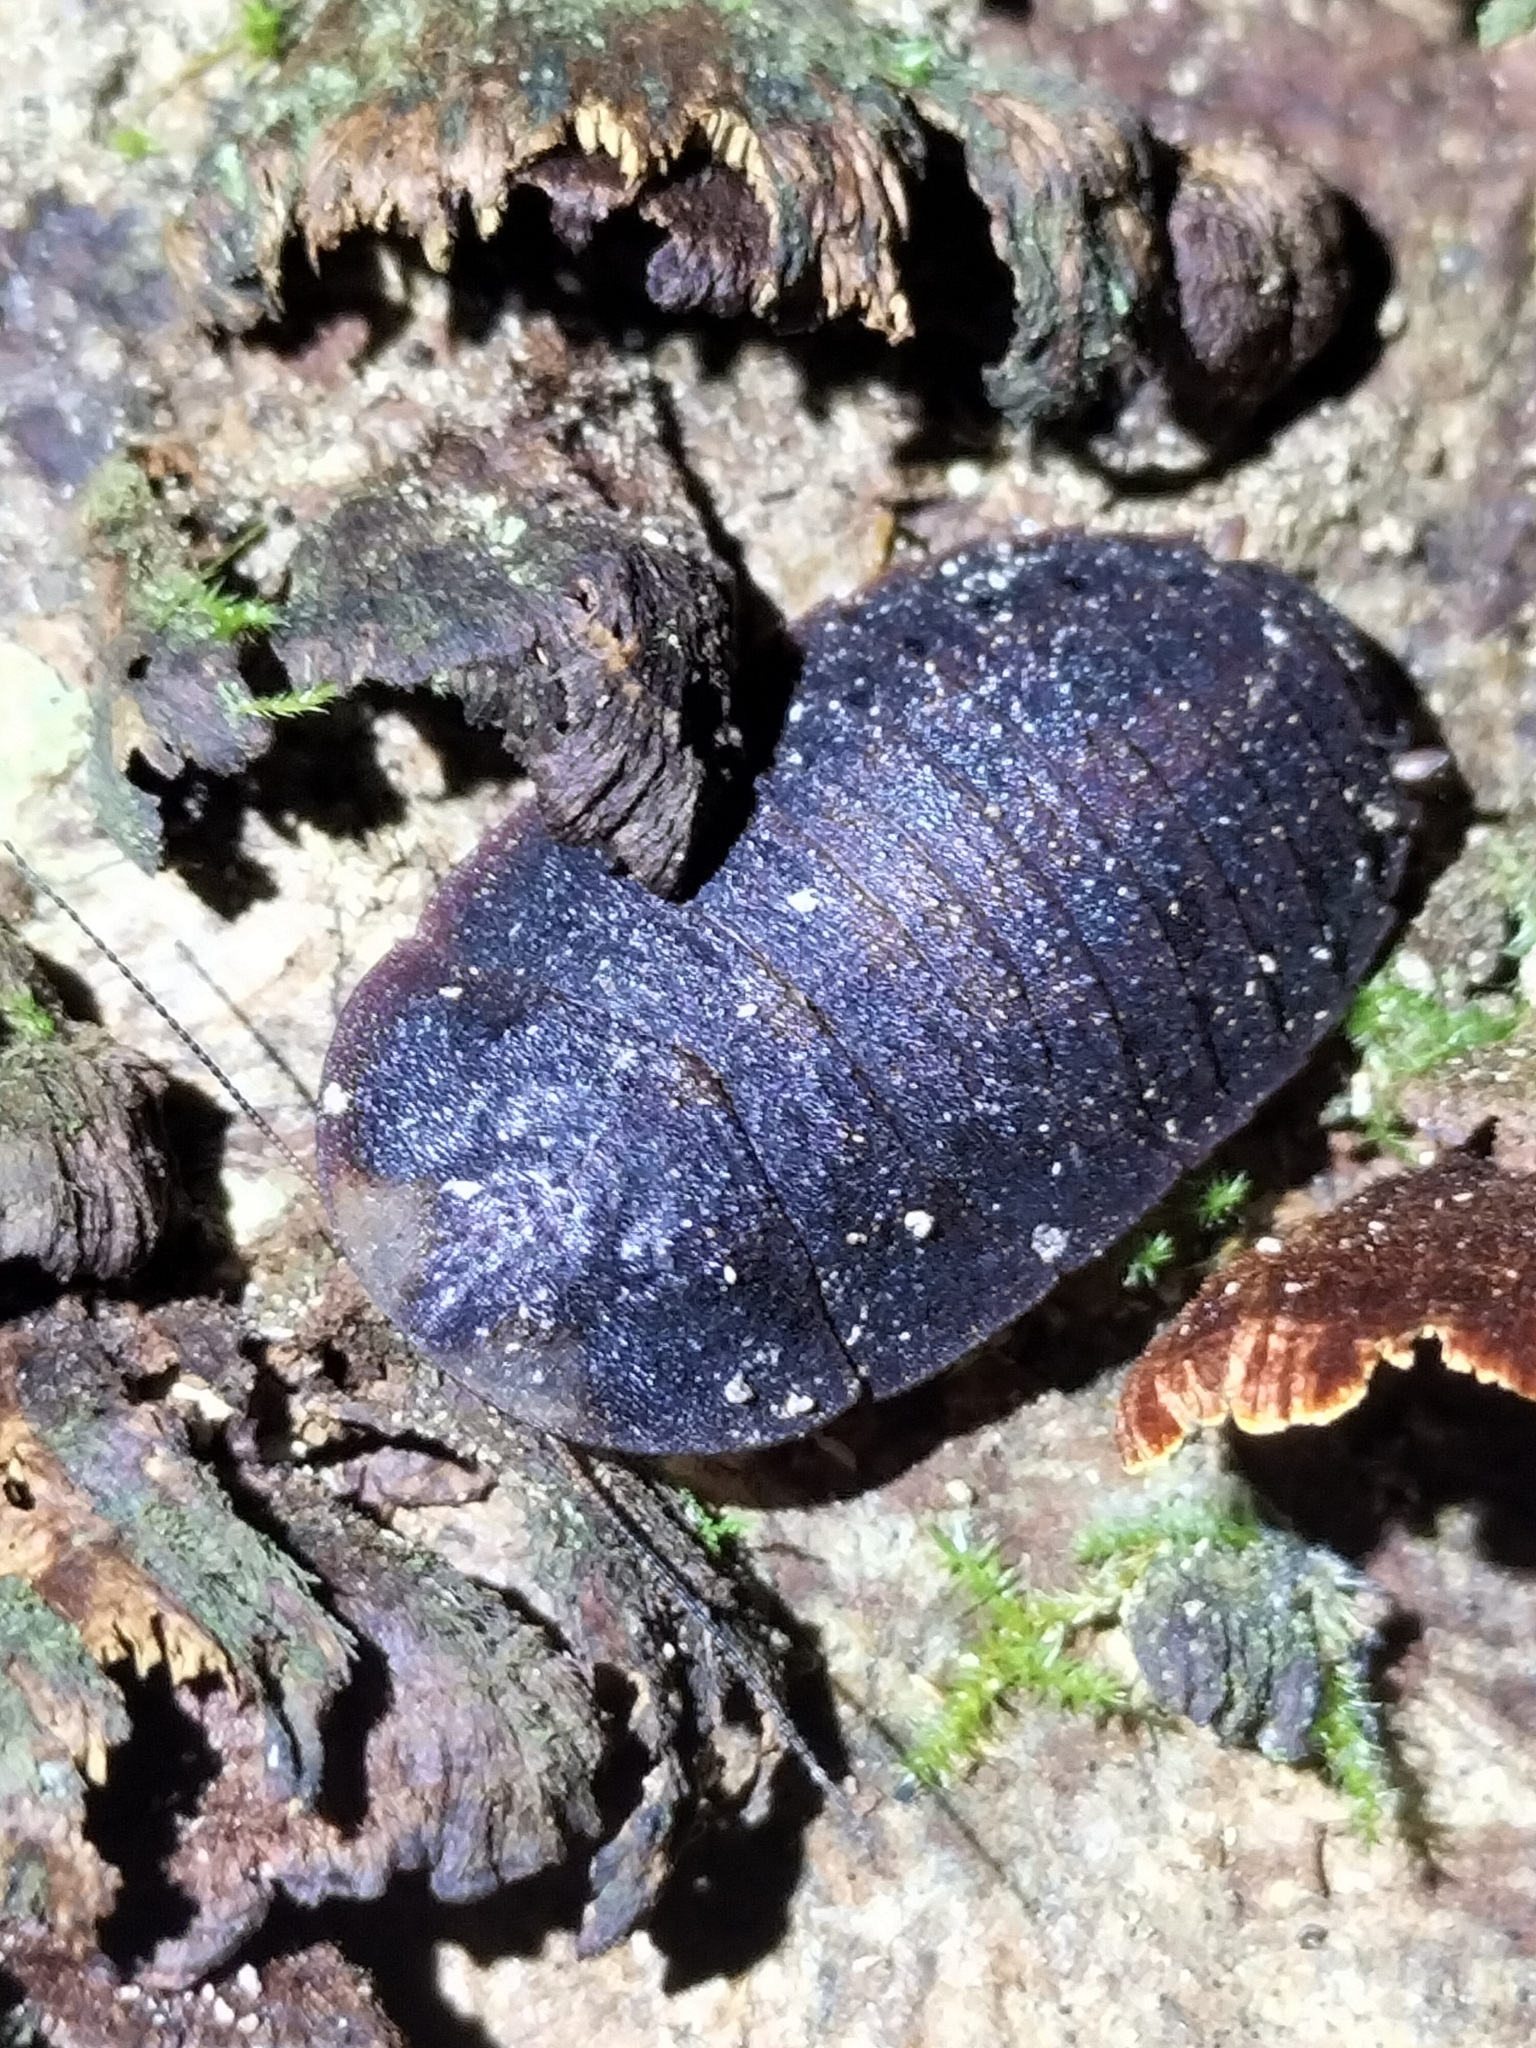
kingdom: Animalia
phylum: Arthropoda
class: Insecta
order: Blattodea
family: Blaberidae
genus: Neolaxta
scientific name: Neolaxta mackerrasae
